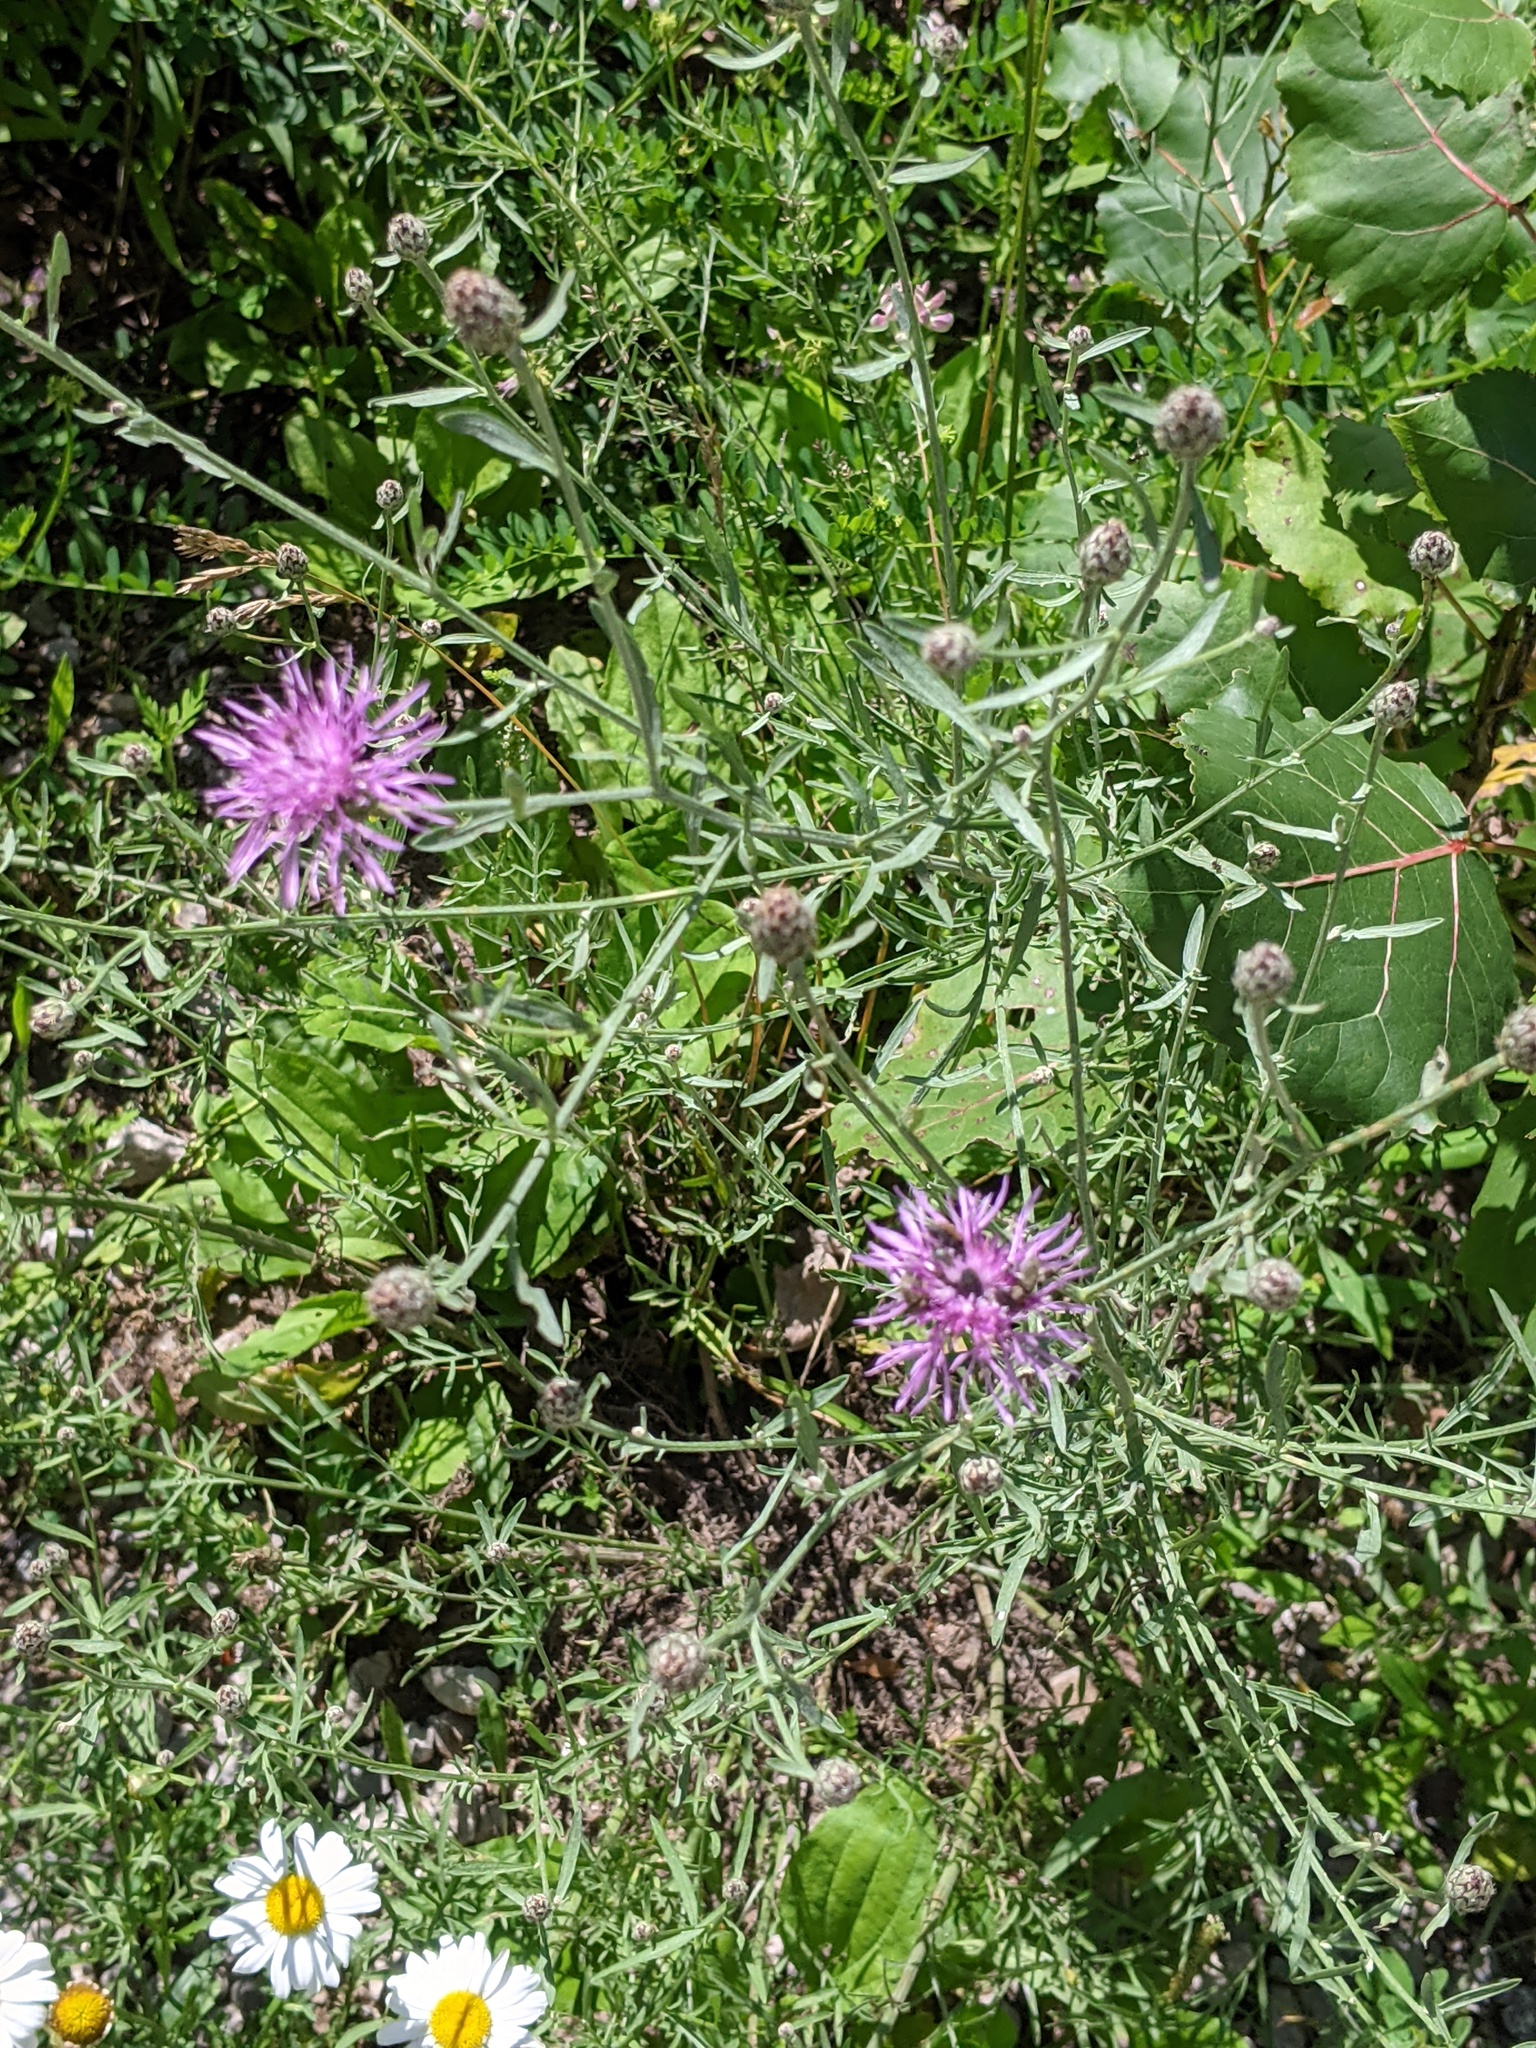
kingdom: Plantae
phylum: Tracheophyta
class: Magnoliopsida
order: Asterales
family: Asteraceae
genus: Centaurea
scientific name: Centaurea stoebe
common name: Spotted knapweed
